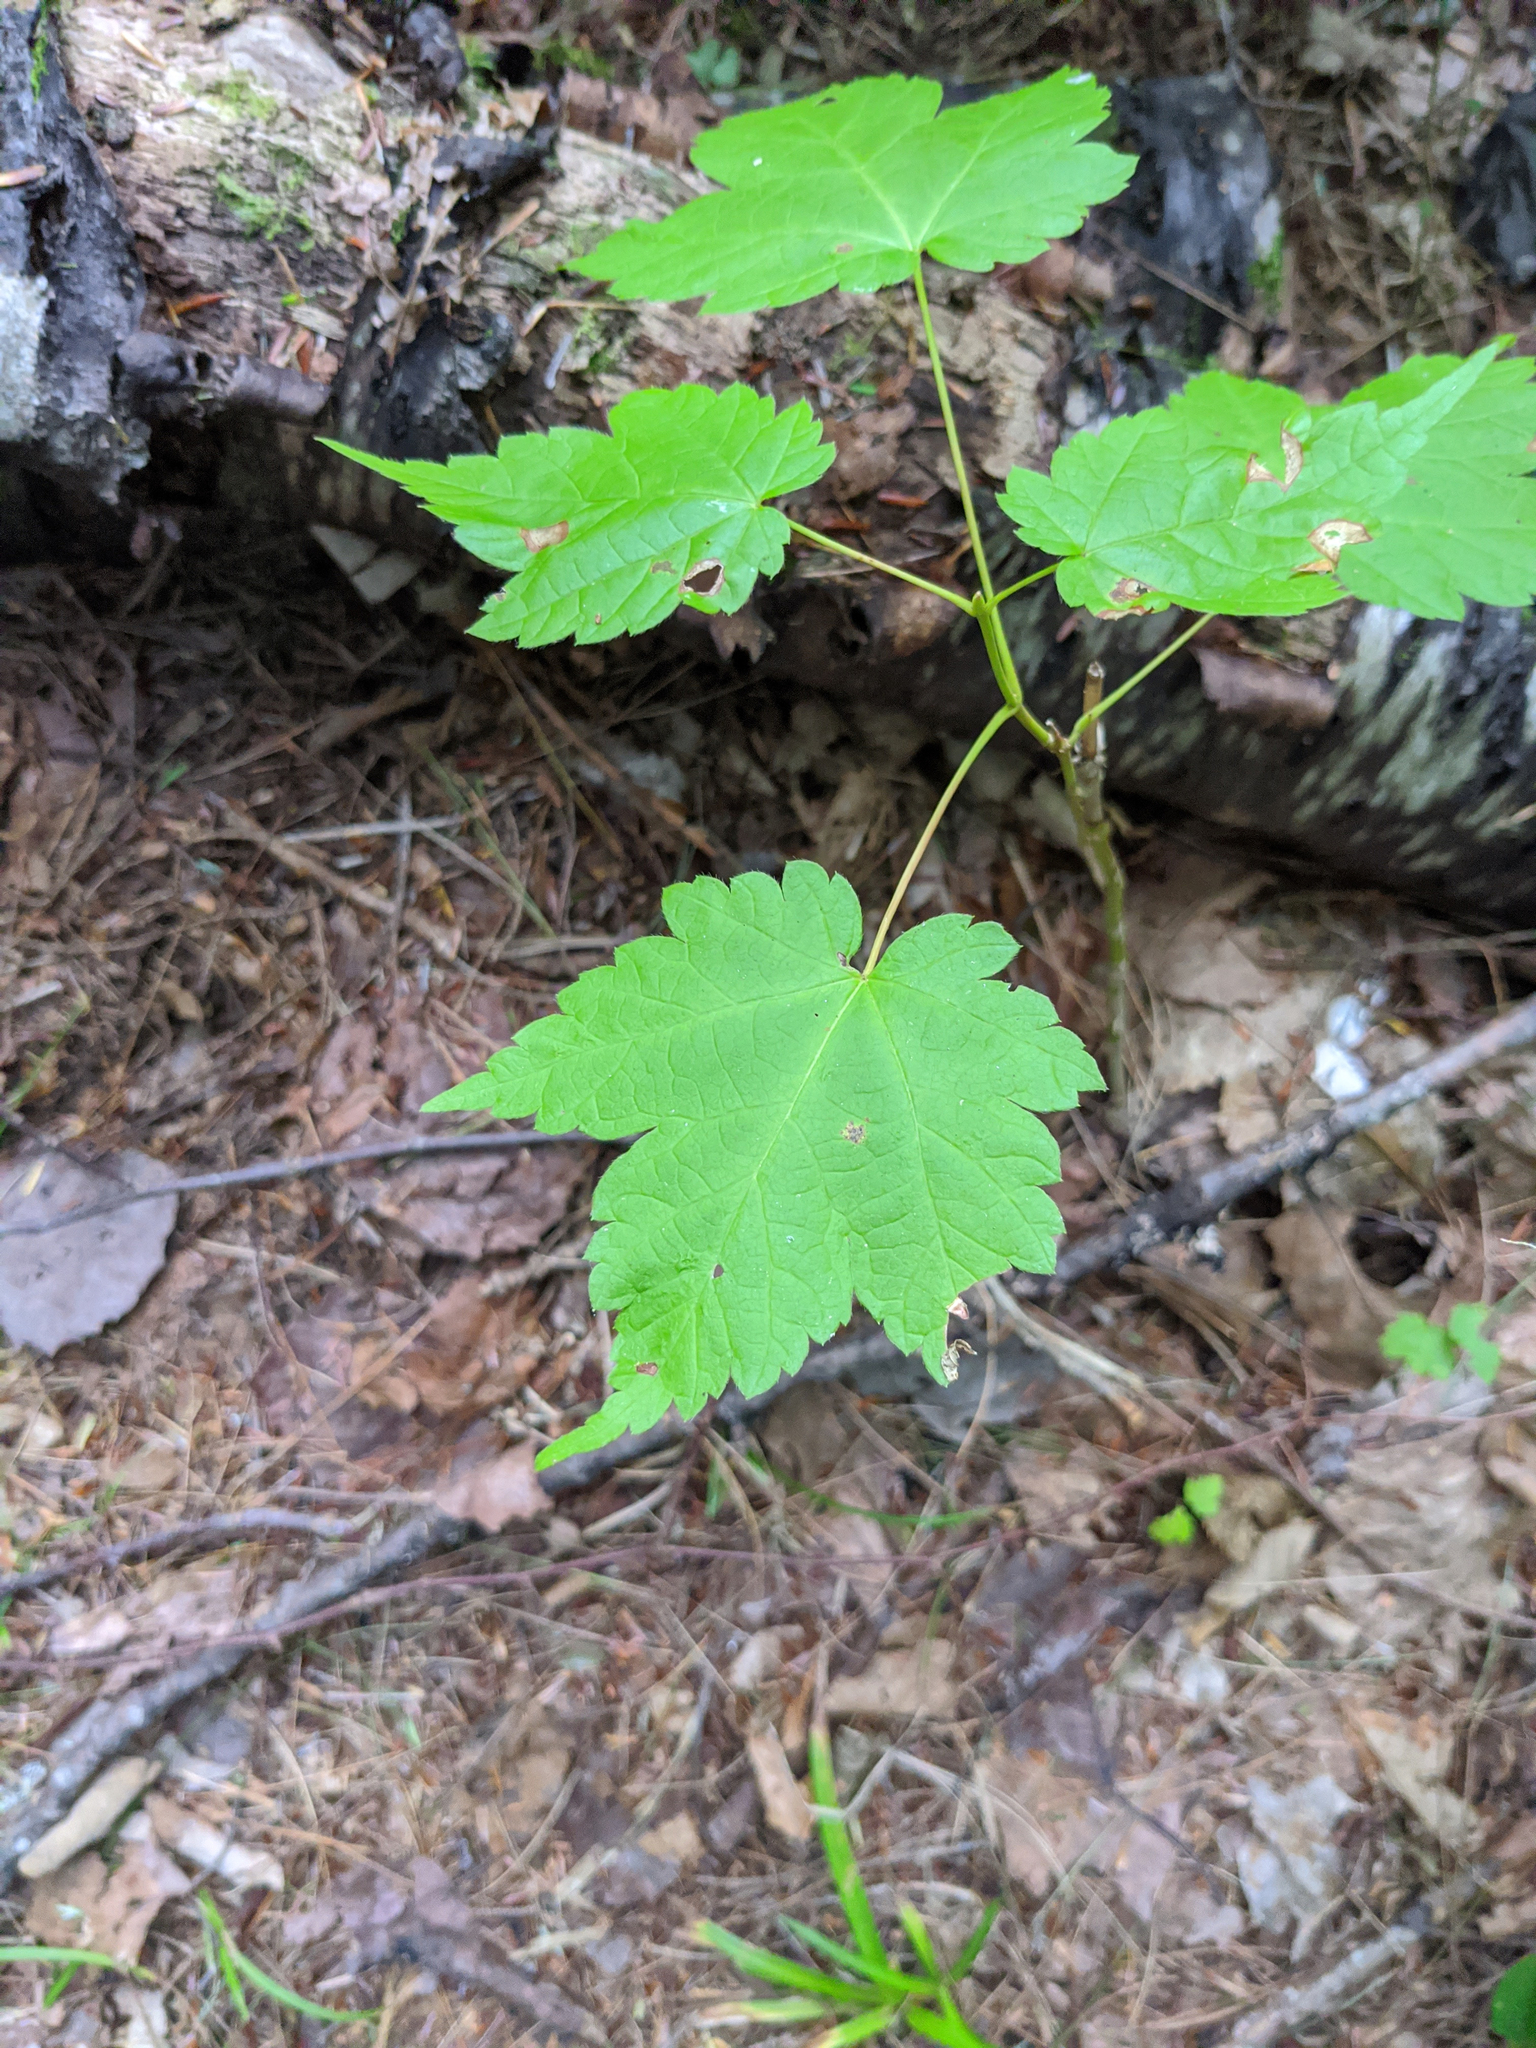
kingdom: Plantae
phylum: Tracheophyta
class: Magnoliopsida
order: Sapindales
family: Sapindaceae
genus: Acer
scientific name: Acer spicatum
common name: Mountain maple
